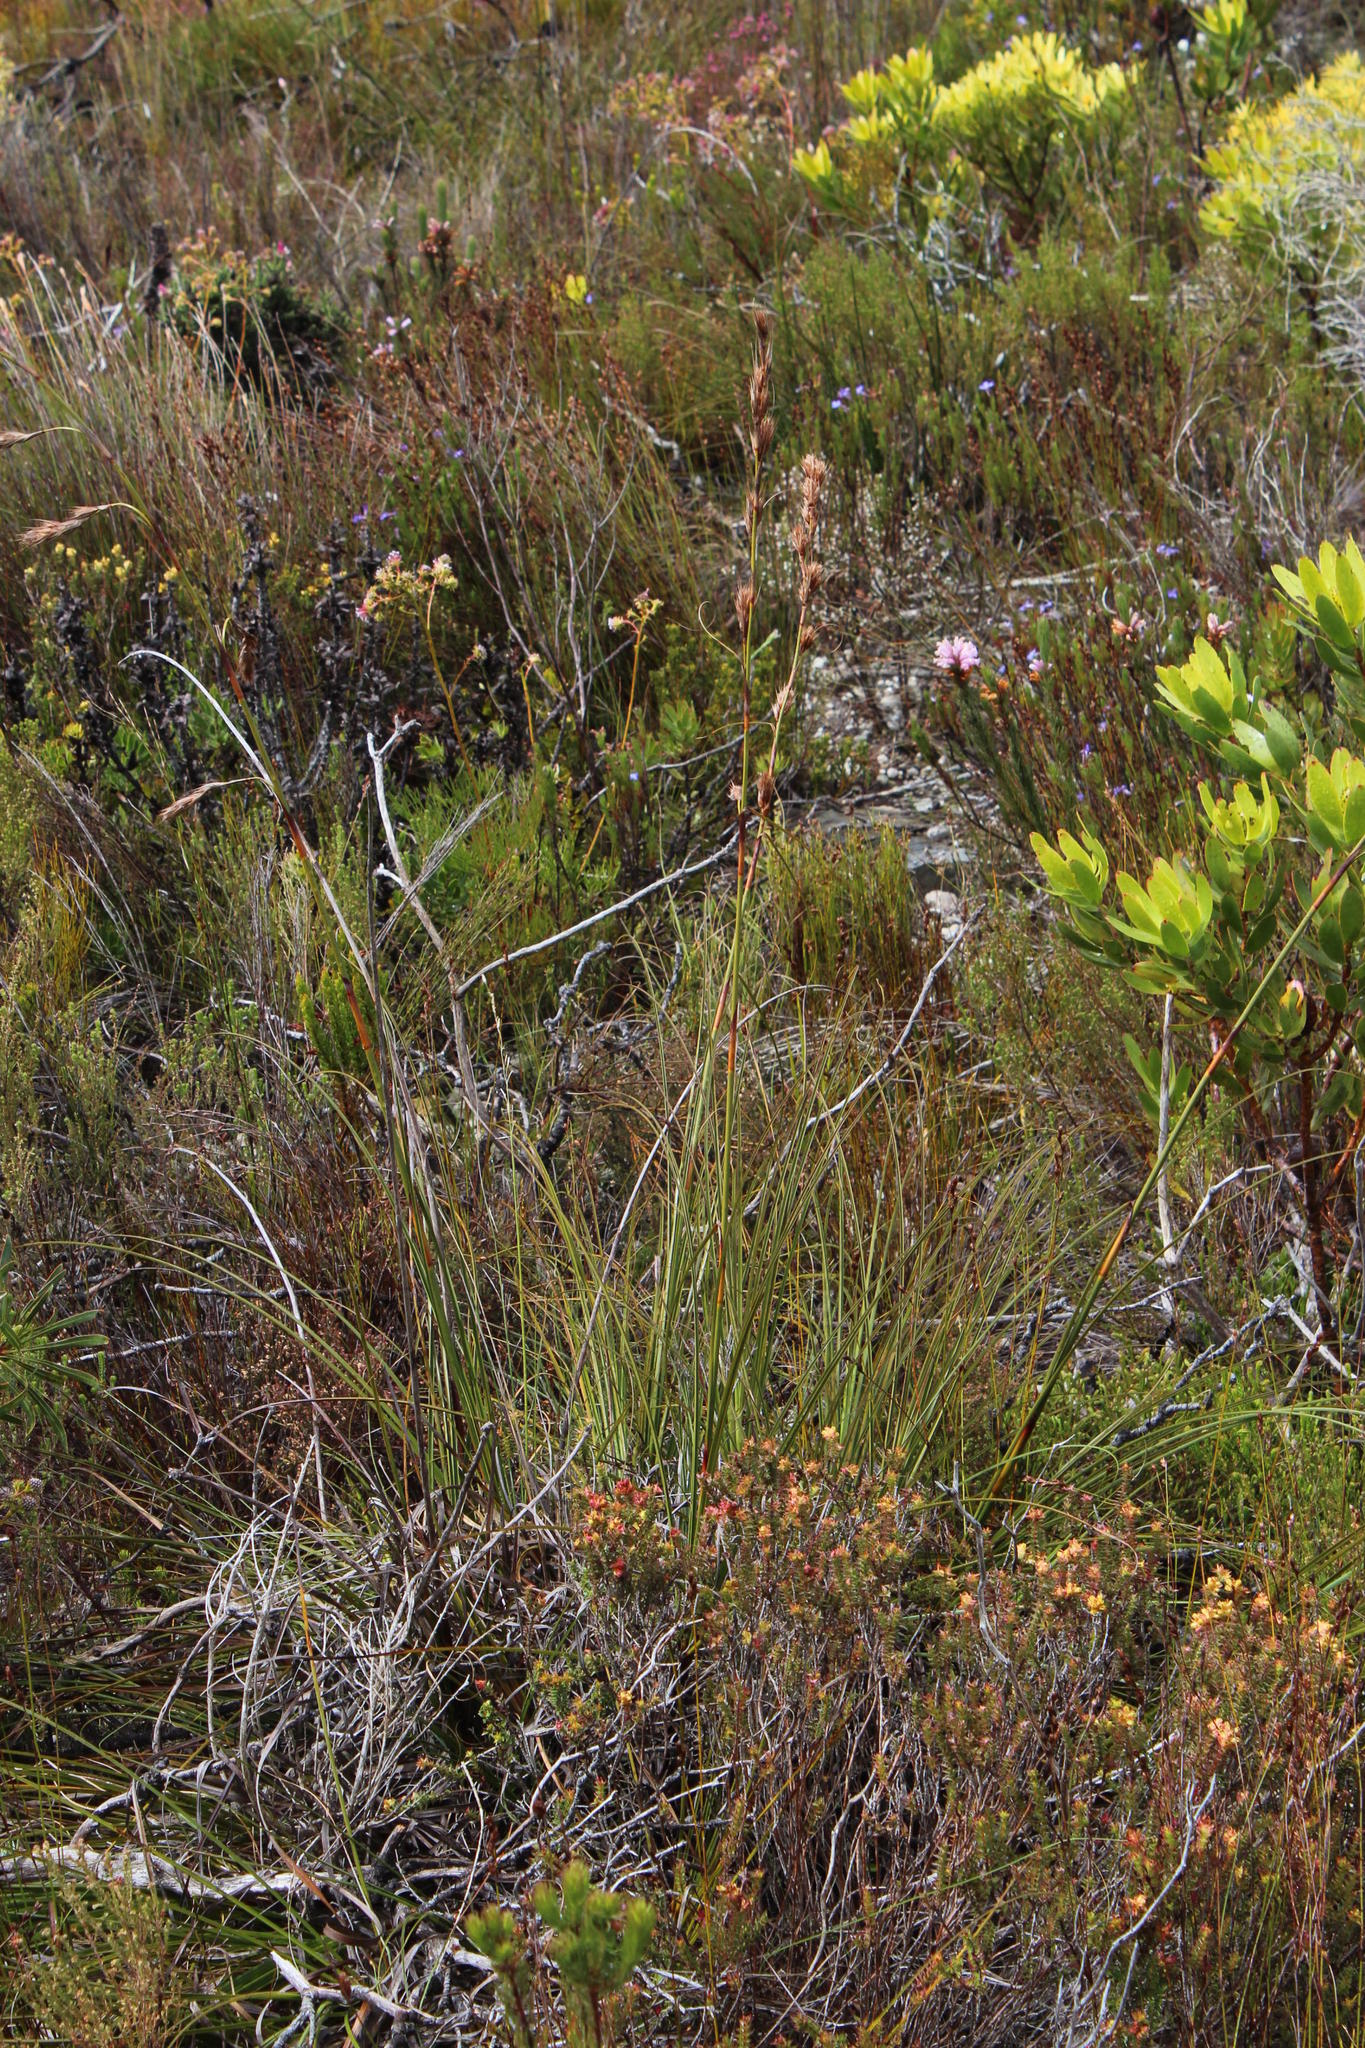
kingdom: Plantae
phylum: Tracheophyta
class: Liliopsida
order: Poales
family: Cyperaceae
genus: Tetraria
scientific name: Tetraria bromoides
